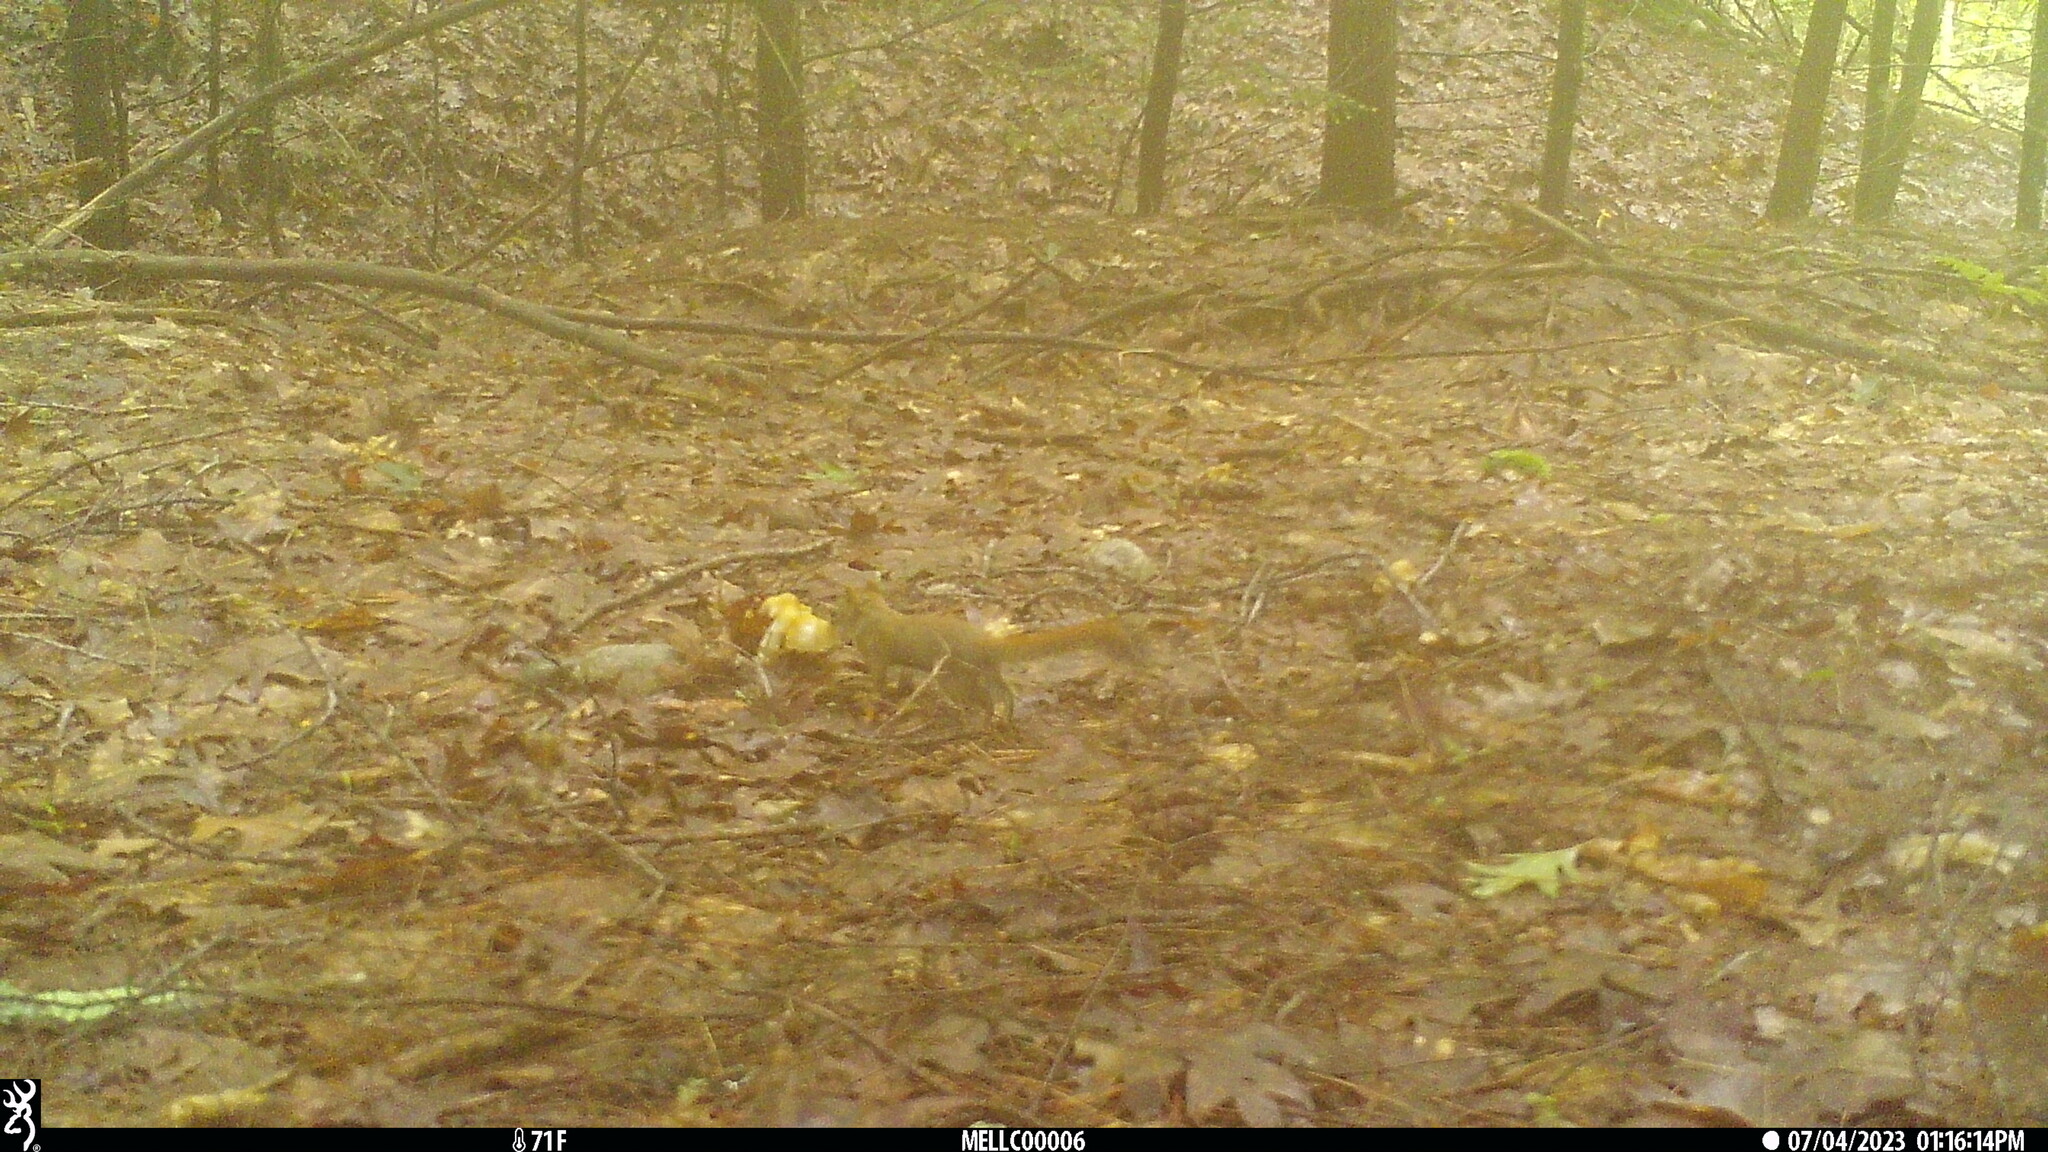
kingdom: Animalia
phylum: Chordata
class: Mammalia
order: Rodentia
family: Sciuridae
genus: Tamiasciurus
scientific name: Tamiasciurus hudsonicus
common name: Red squirrel
